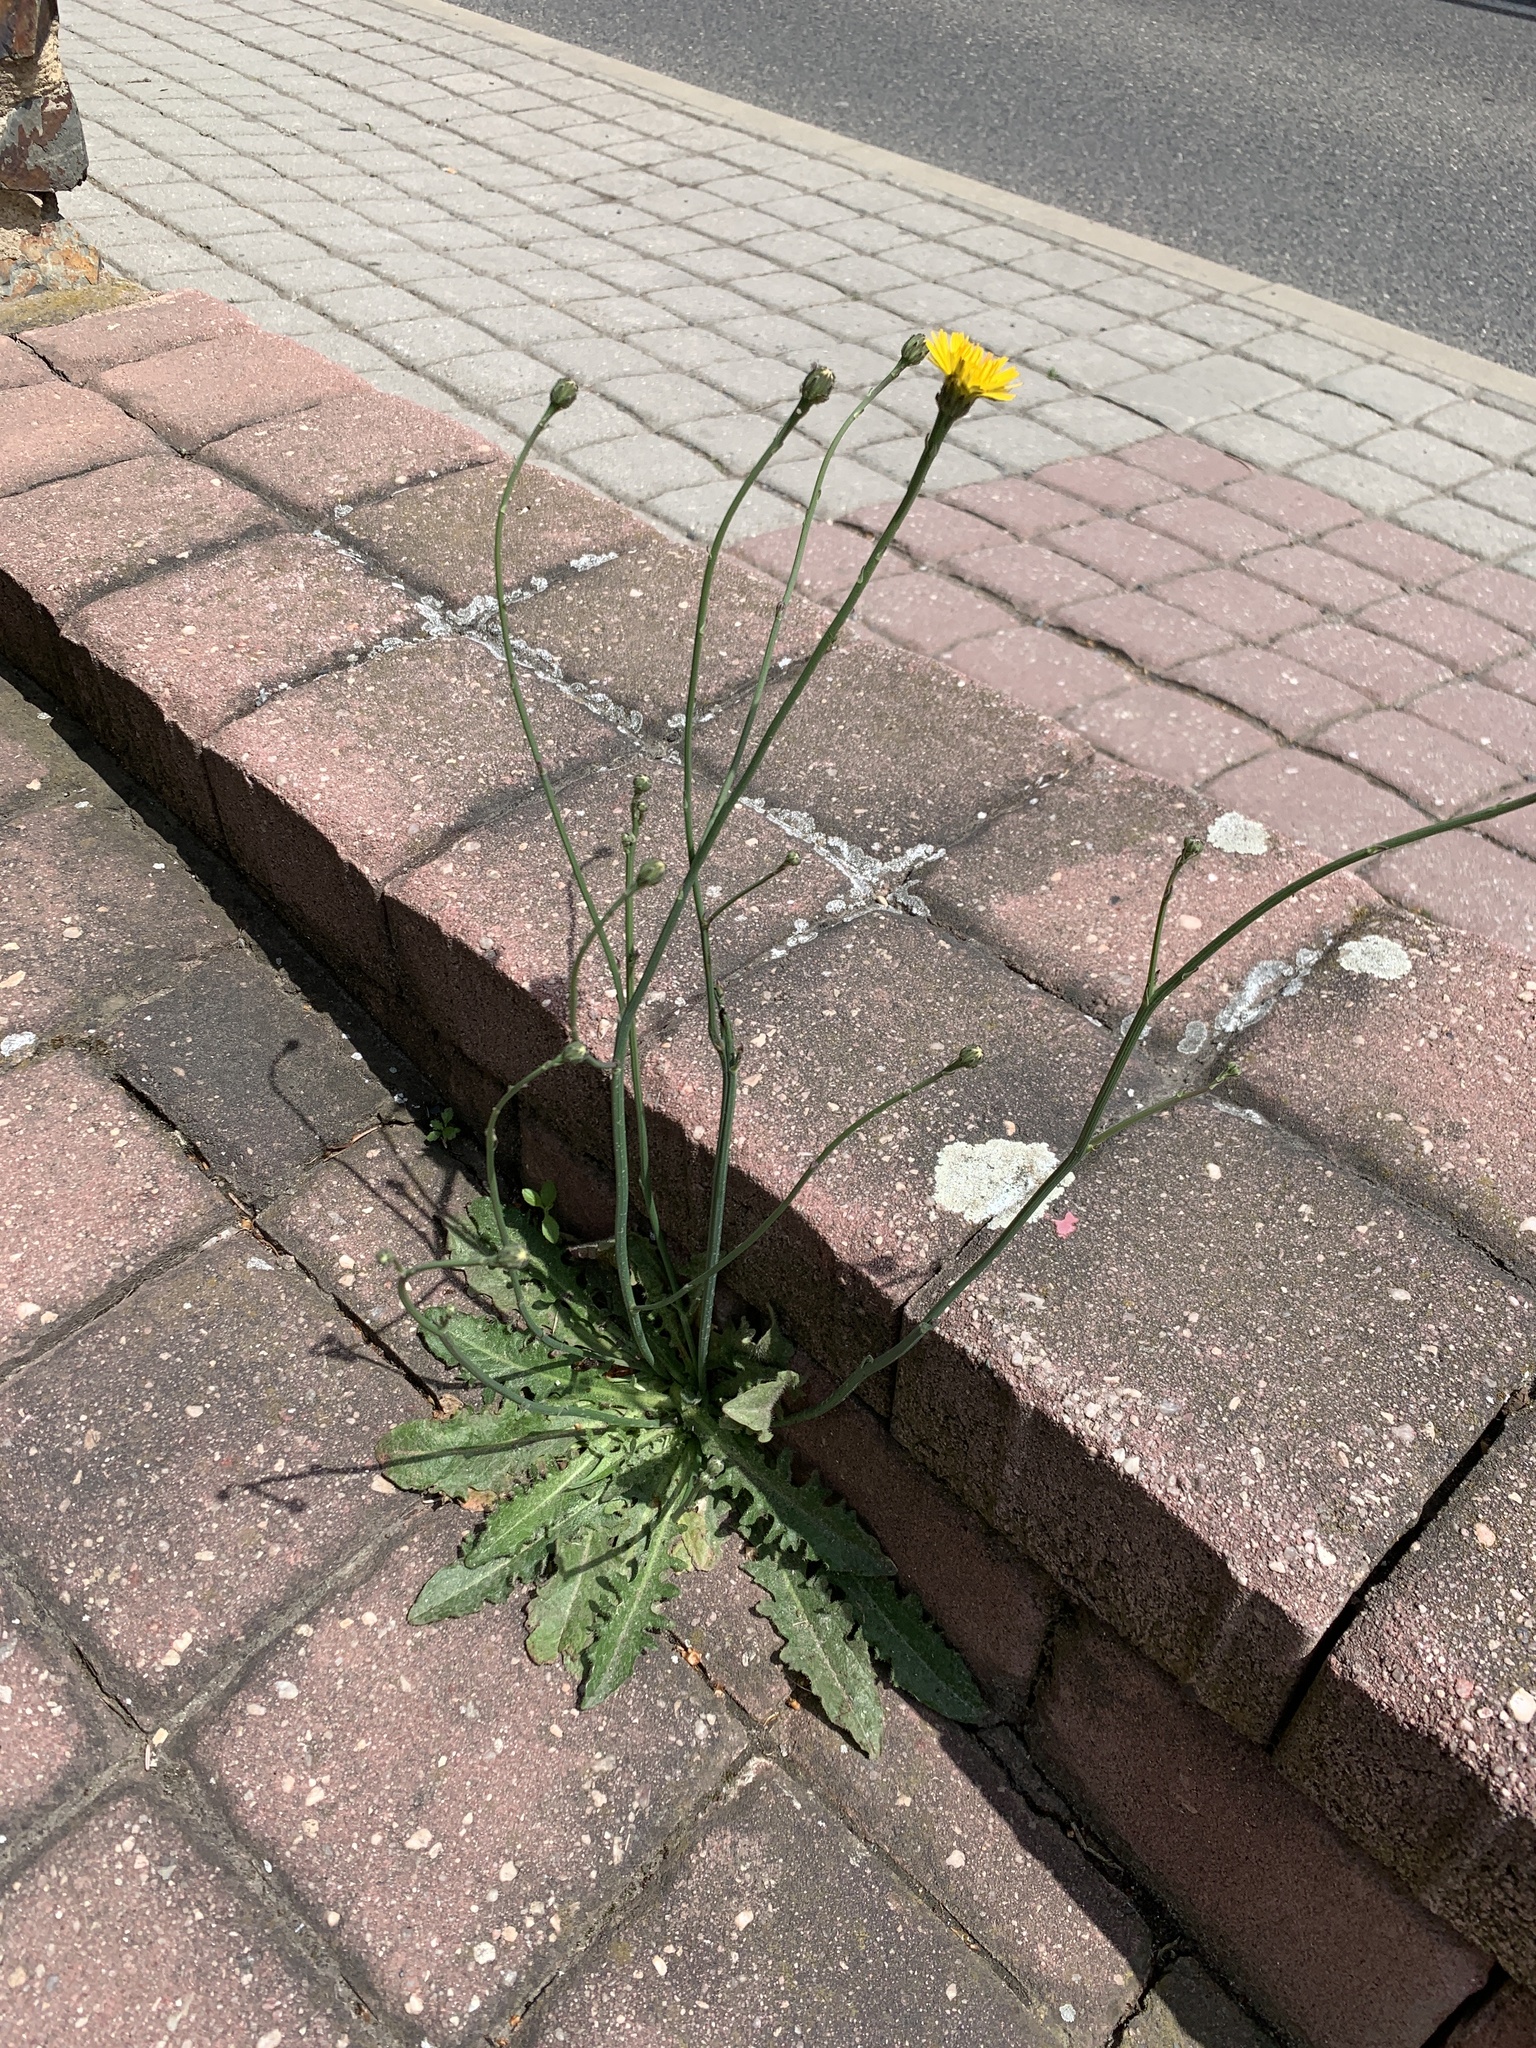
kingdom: Plantae
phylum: Tracheophyta
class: Magnoliopsida
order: Asterales
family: Asteraceae
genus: Hypochaeris
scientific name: Hypochaeris radicata
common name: Flatweed
